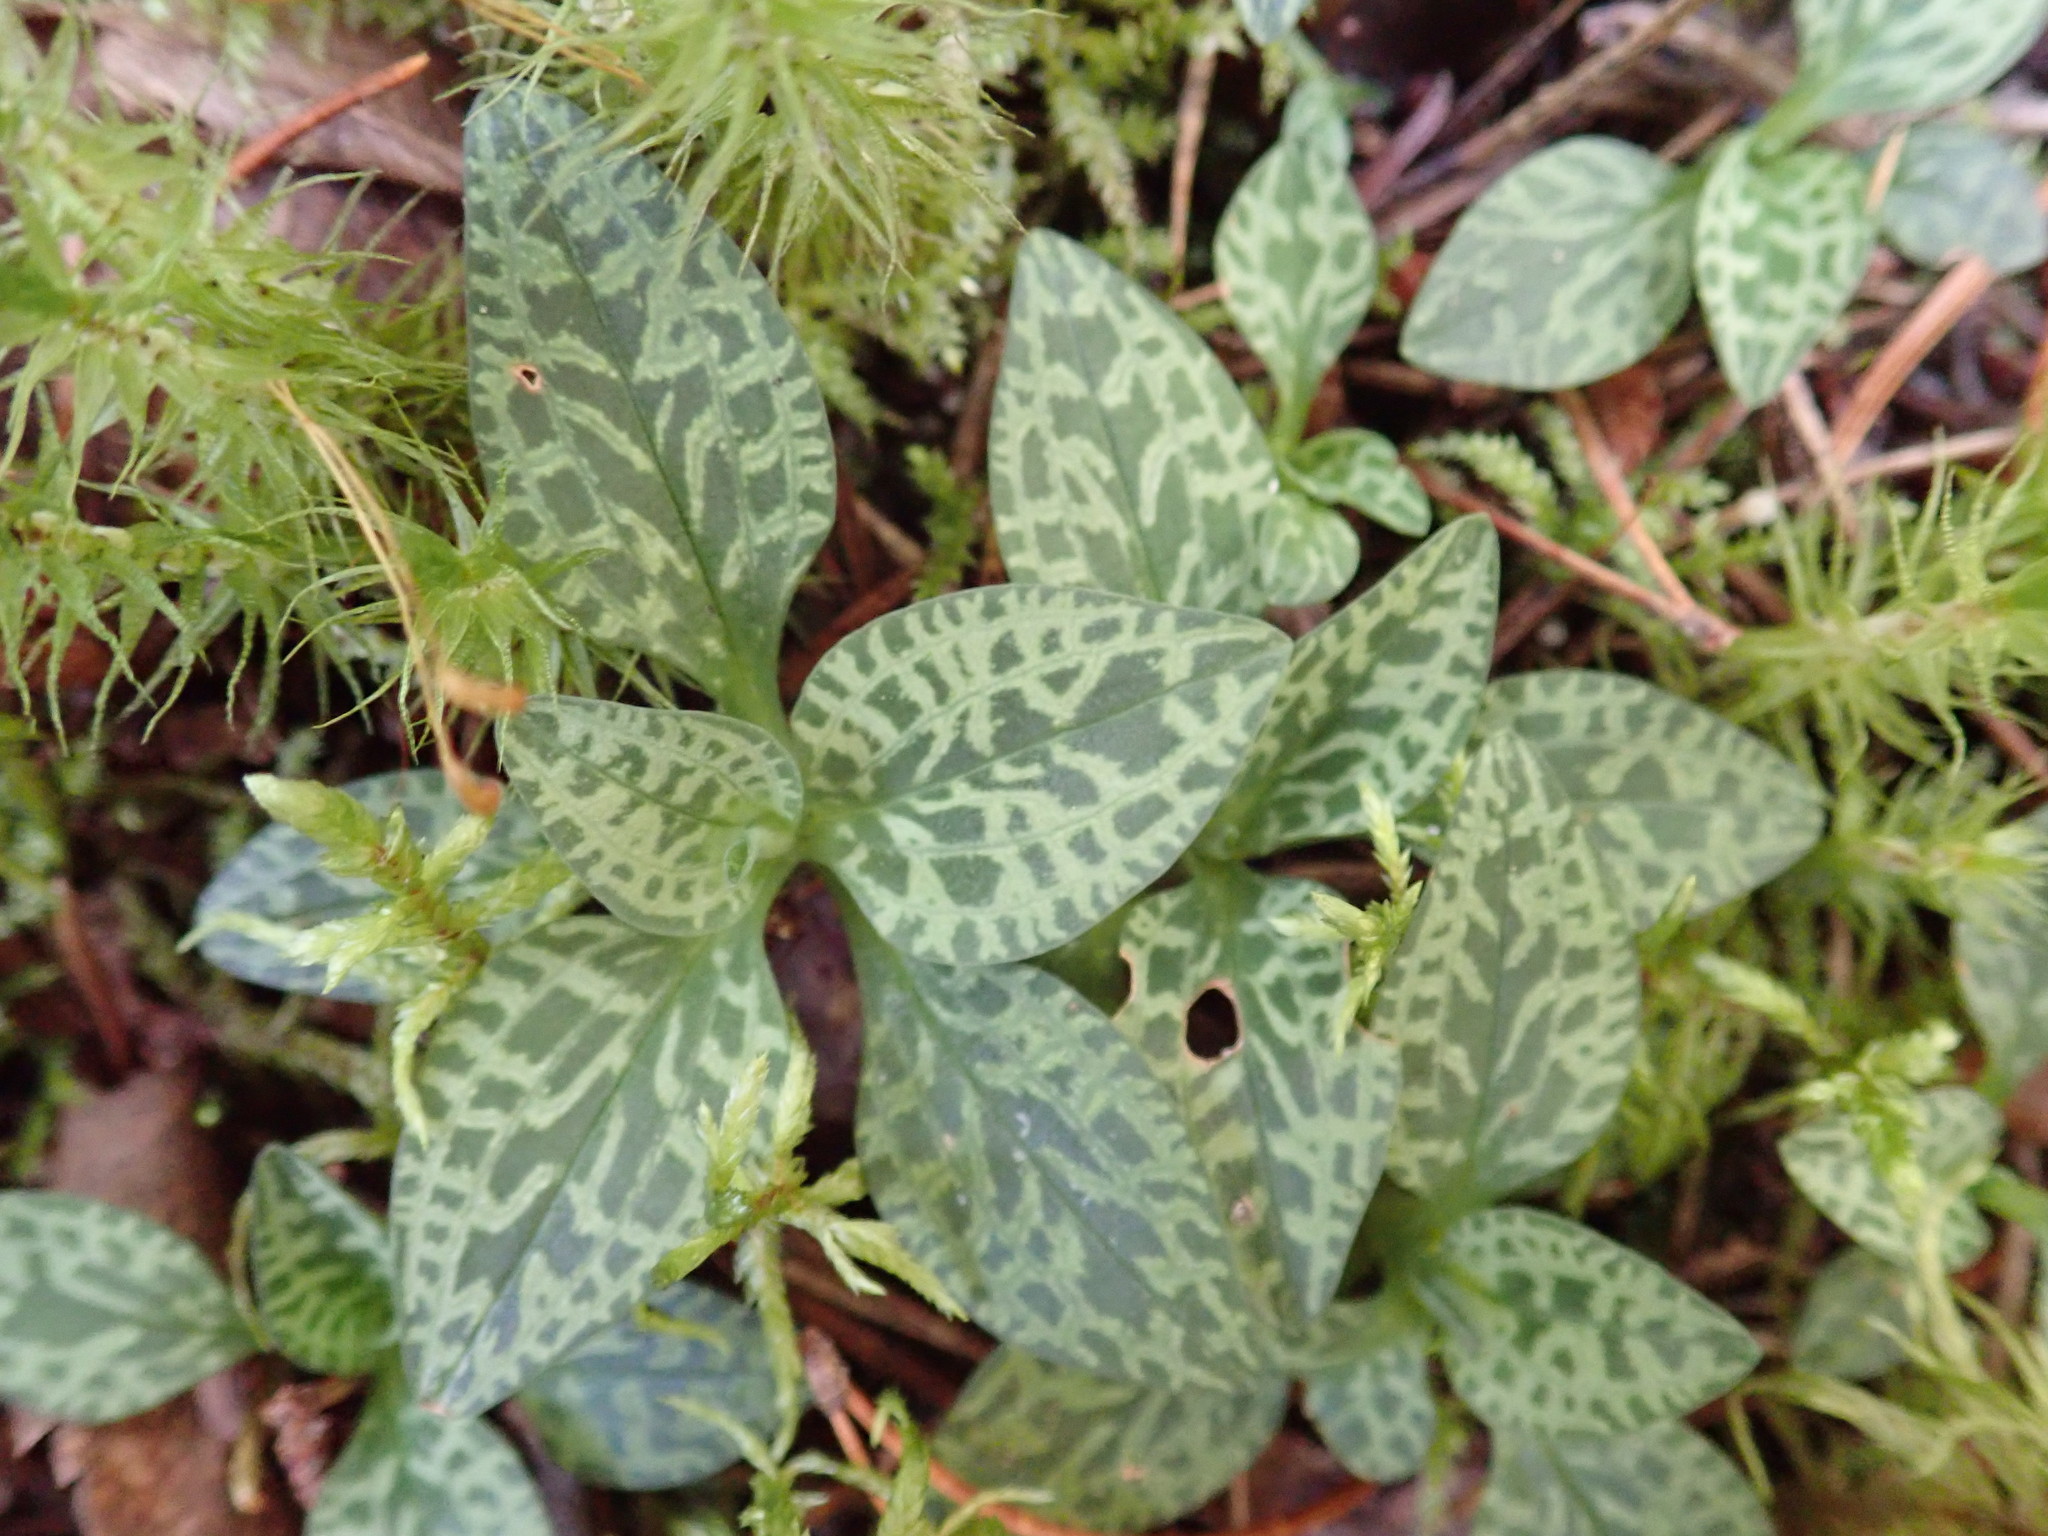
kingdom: Plantae
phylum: Tracheophyta
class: Liliopsida
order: Asparagales
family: Orchidaceae
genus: Goodyera
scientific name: Goodyera repens
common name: Creeping lady's-tresses
